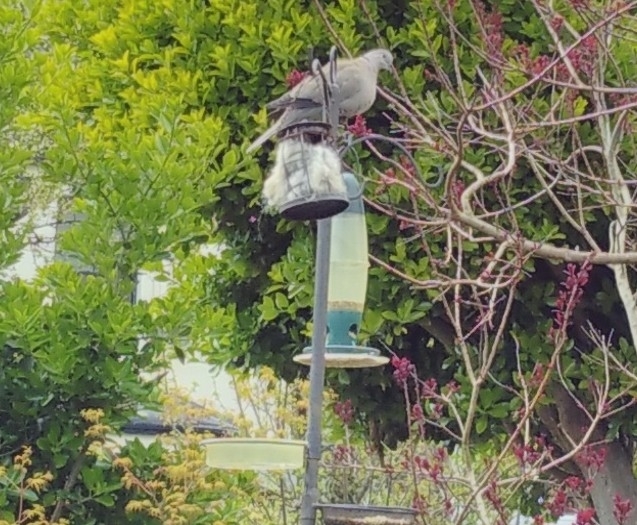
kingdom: Animalia
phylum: Chordata
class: Aves
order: Columbiformes
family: Columbidae
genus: Streptopelia
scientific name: Streptopelia decaocto
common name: Eurasian collared dove
